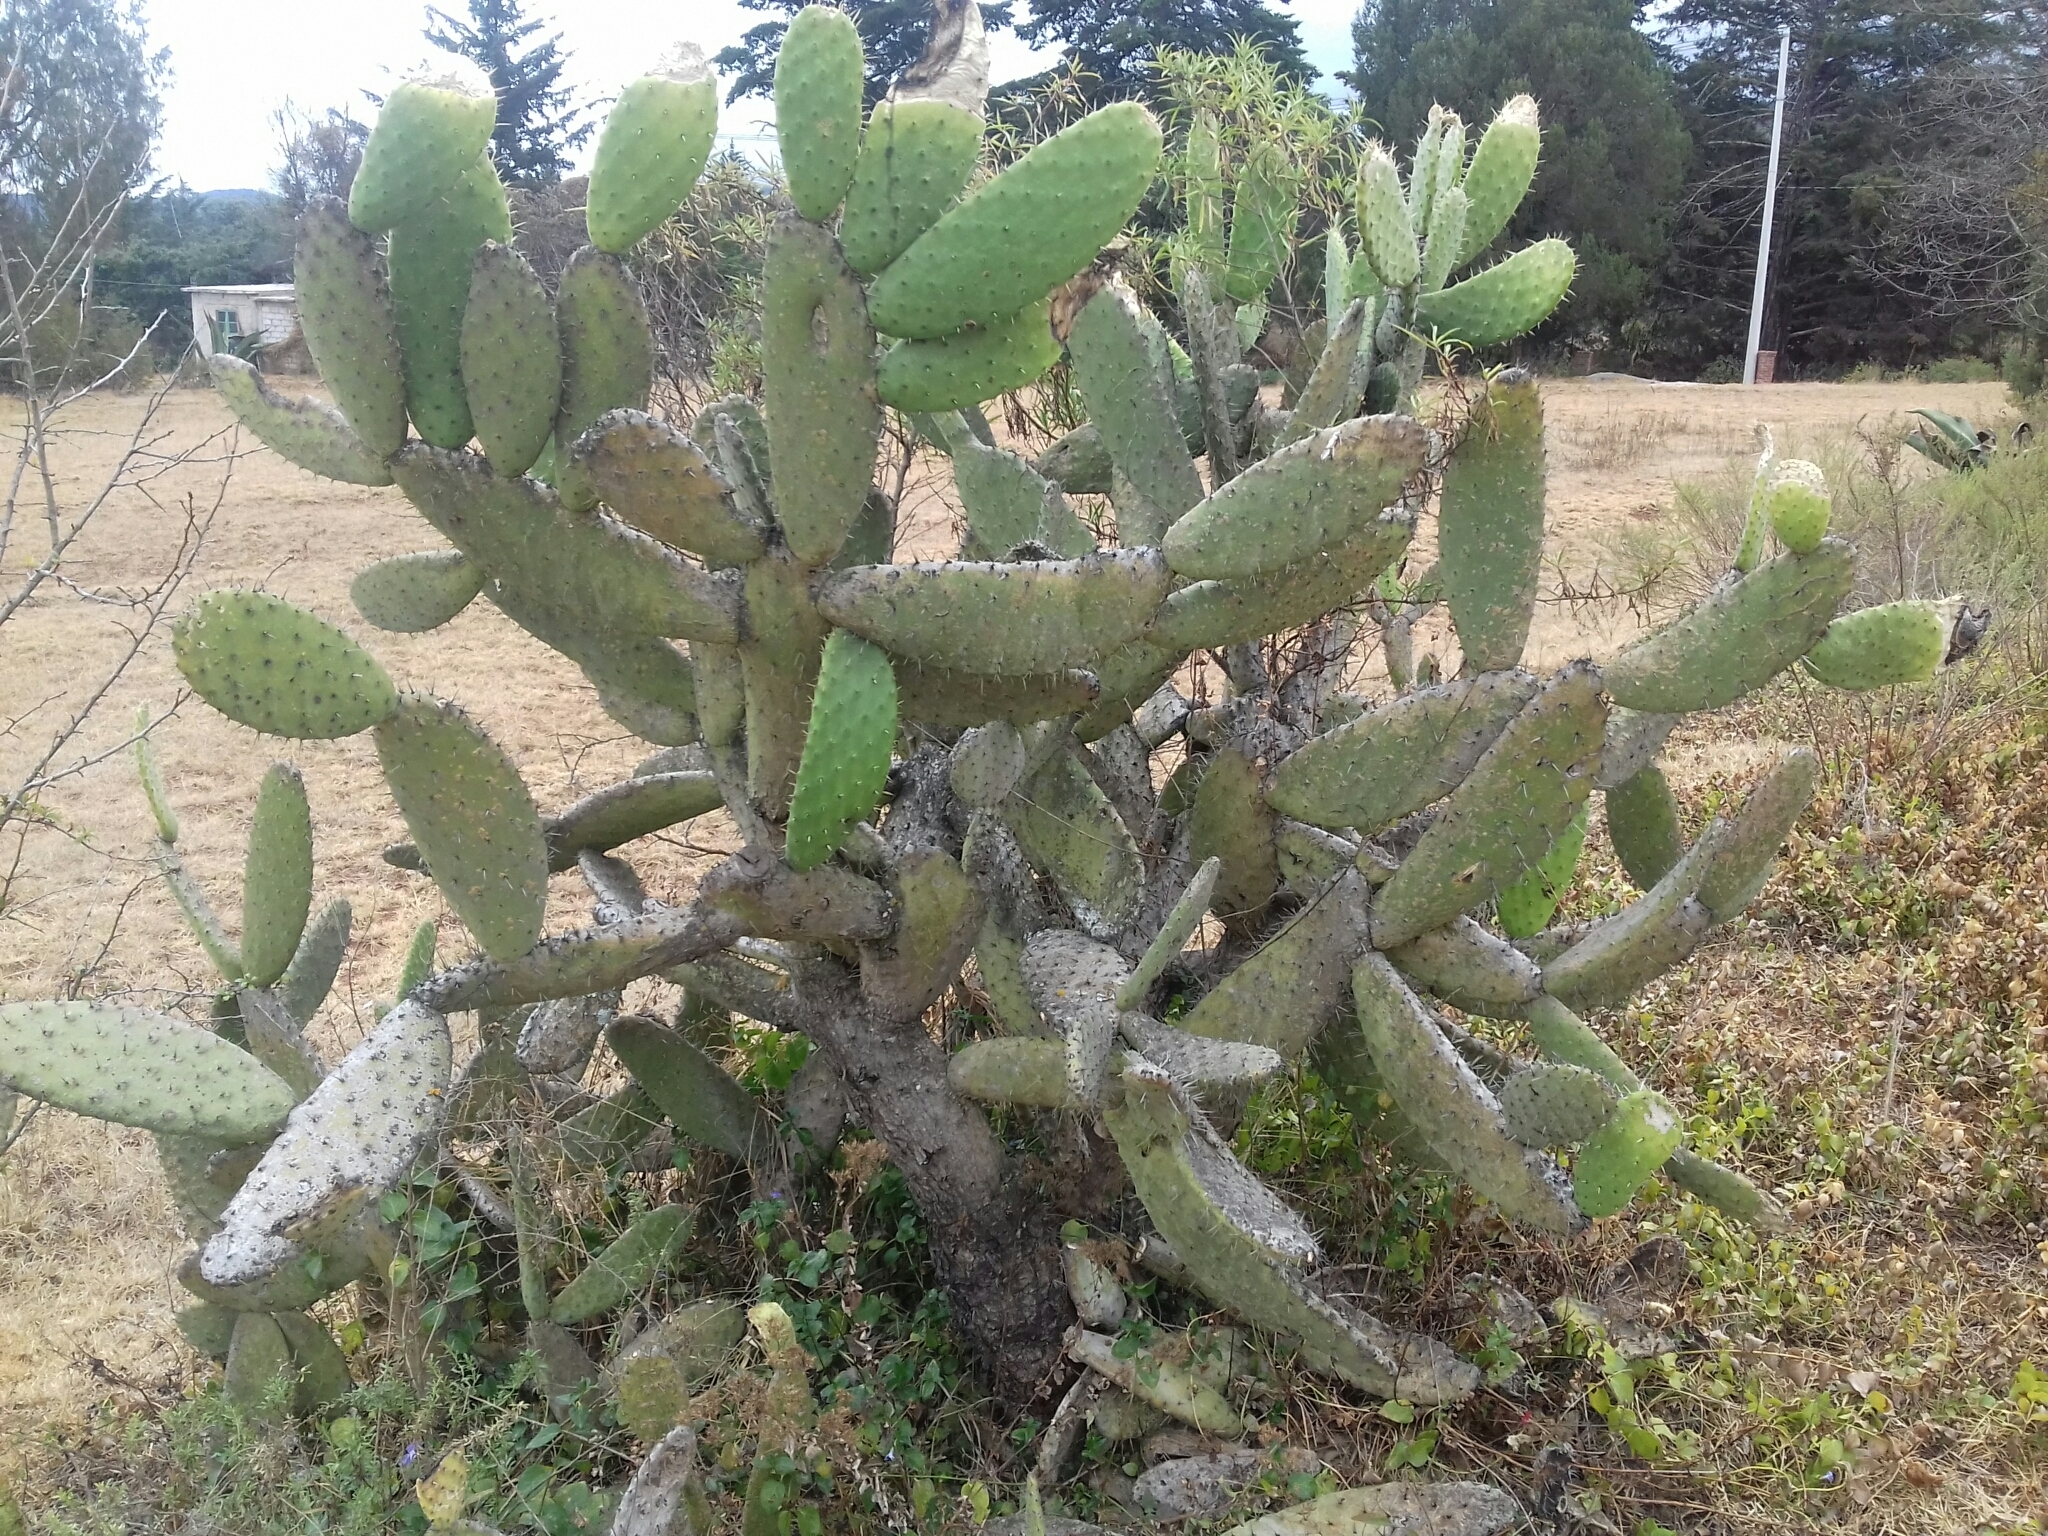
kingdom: Plantae
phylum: Tracheophyta
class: Magnoliopsida
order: Caryophyllales
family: Cactaceae
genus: Opuntia
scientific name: Opuntia tomentosa
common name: Woollyjoint pricklypear
